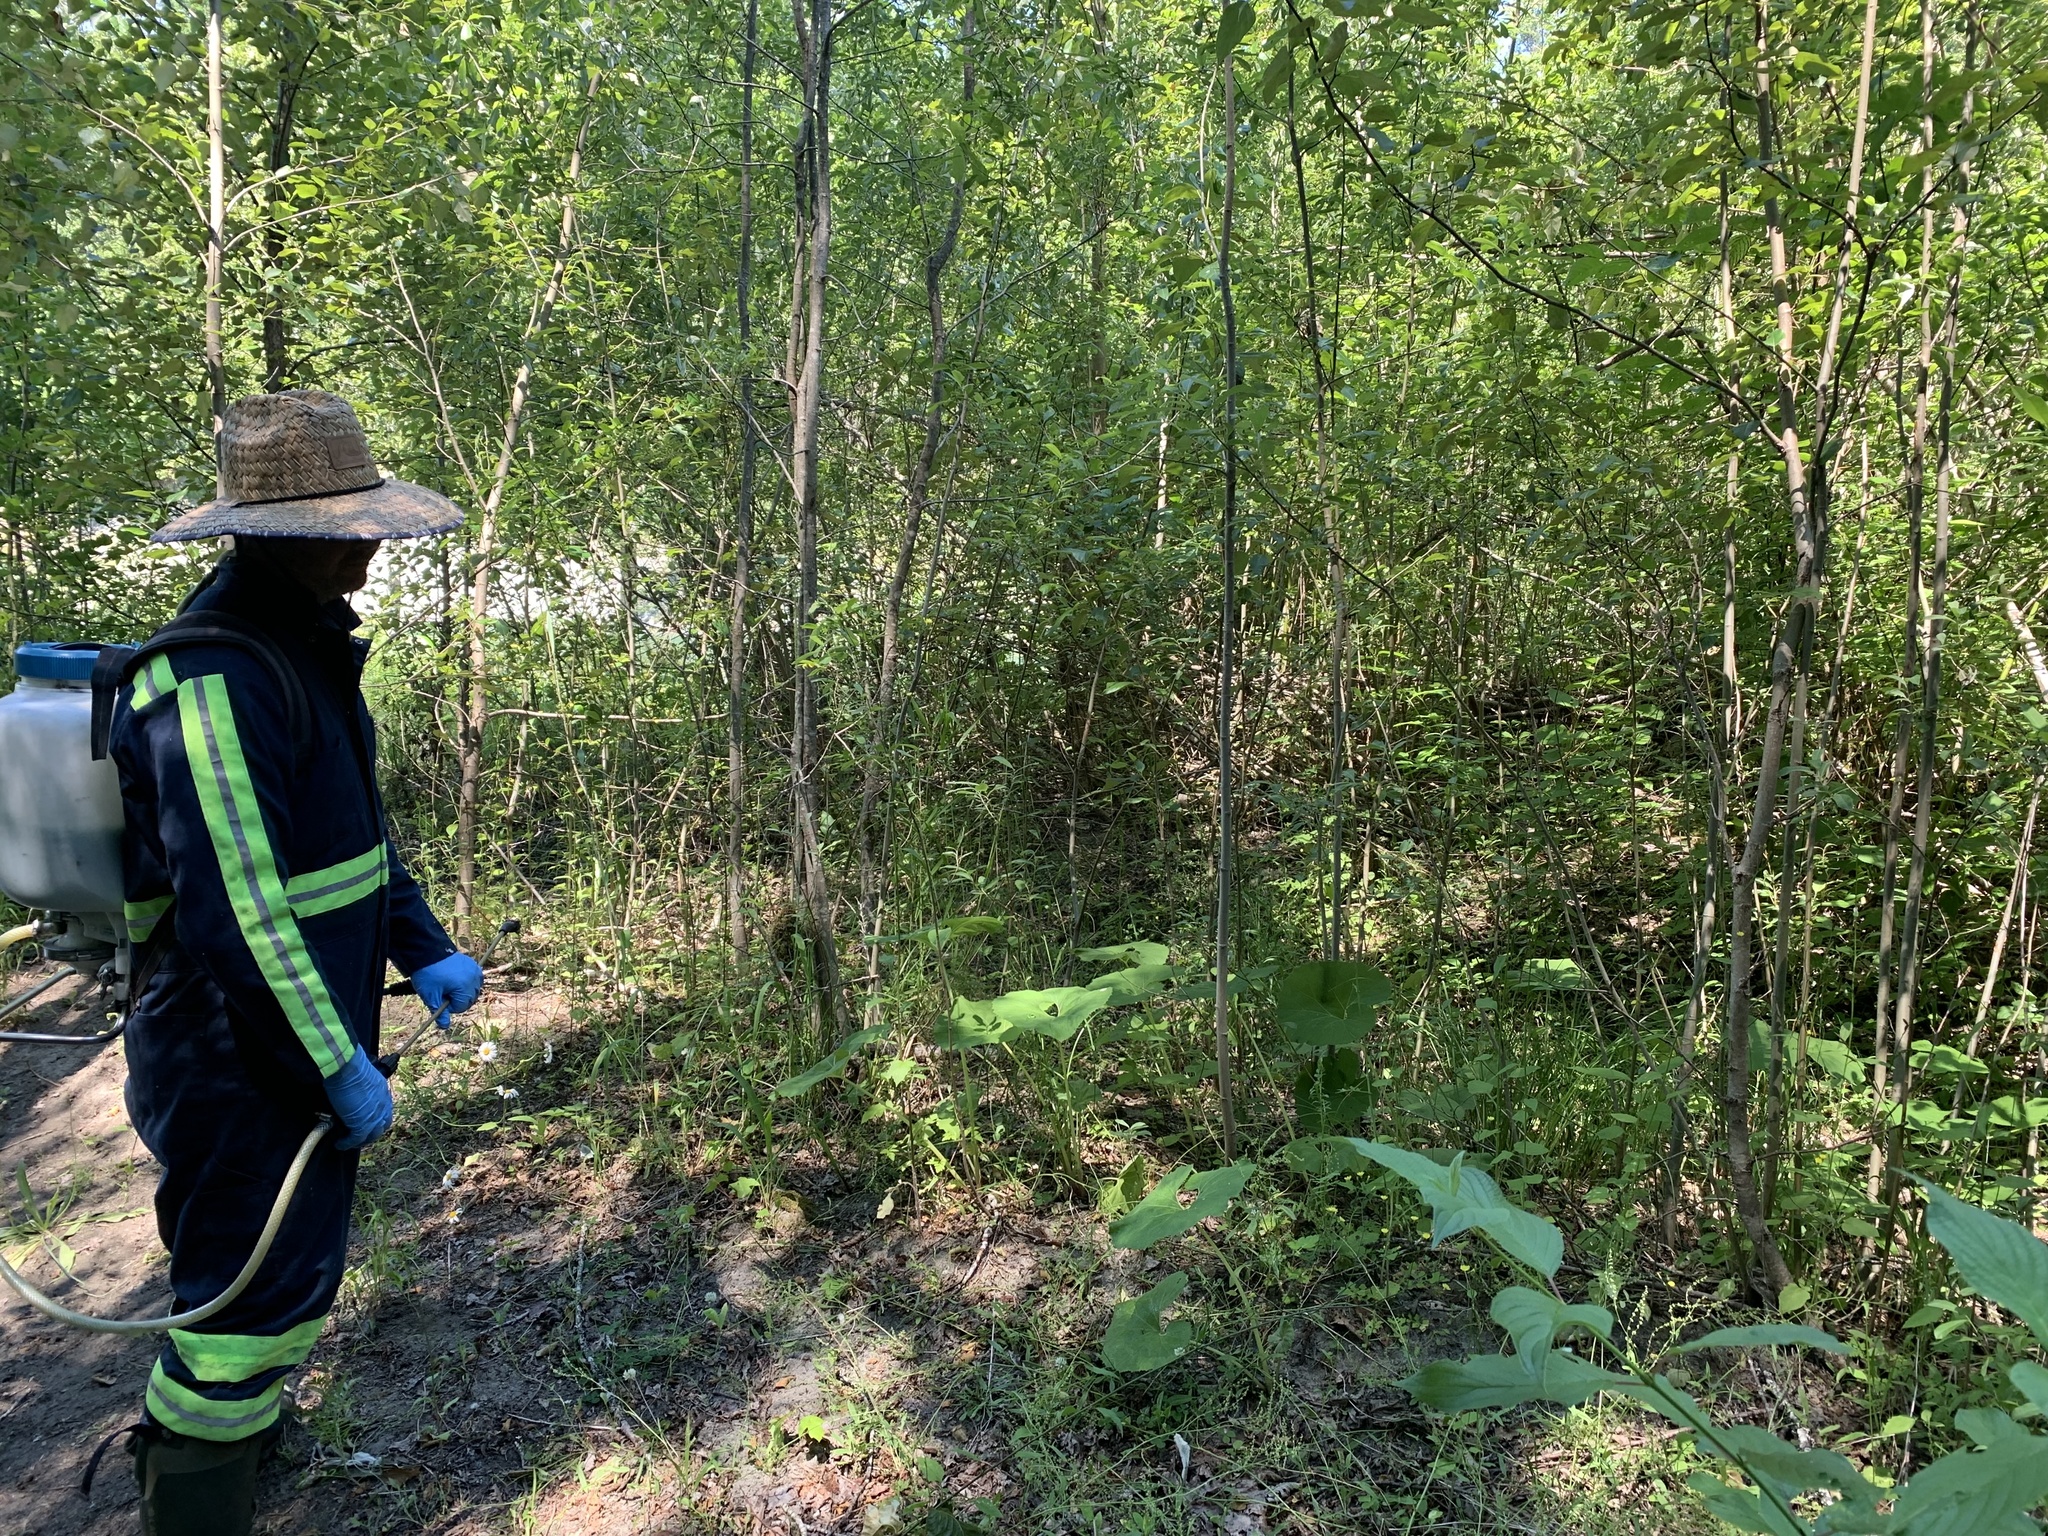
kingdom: Plantae
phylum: Tracheophyta
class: Magnoliopsida
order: Asterales
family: Asteraceae
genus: Petasites
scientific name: Petasites japonicus
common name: Giant butterbur
